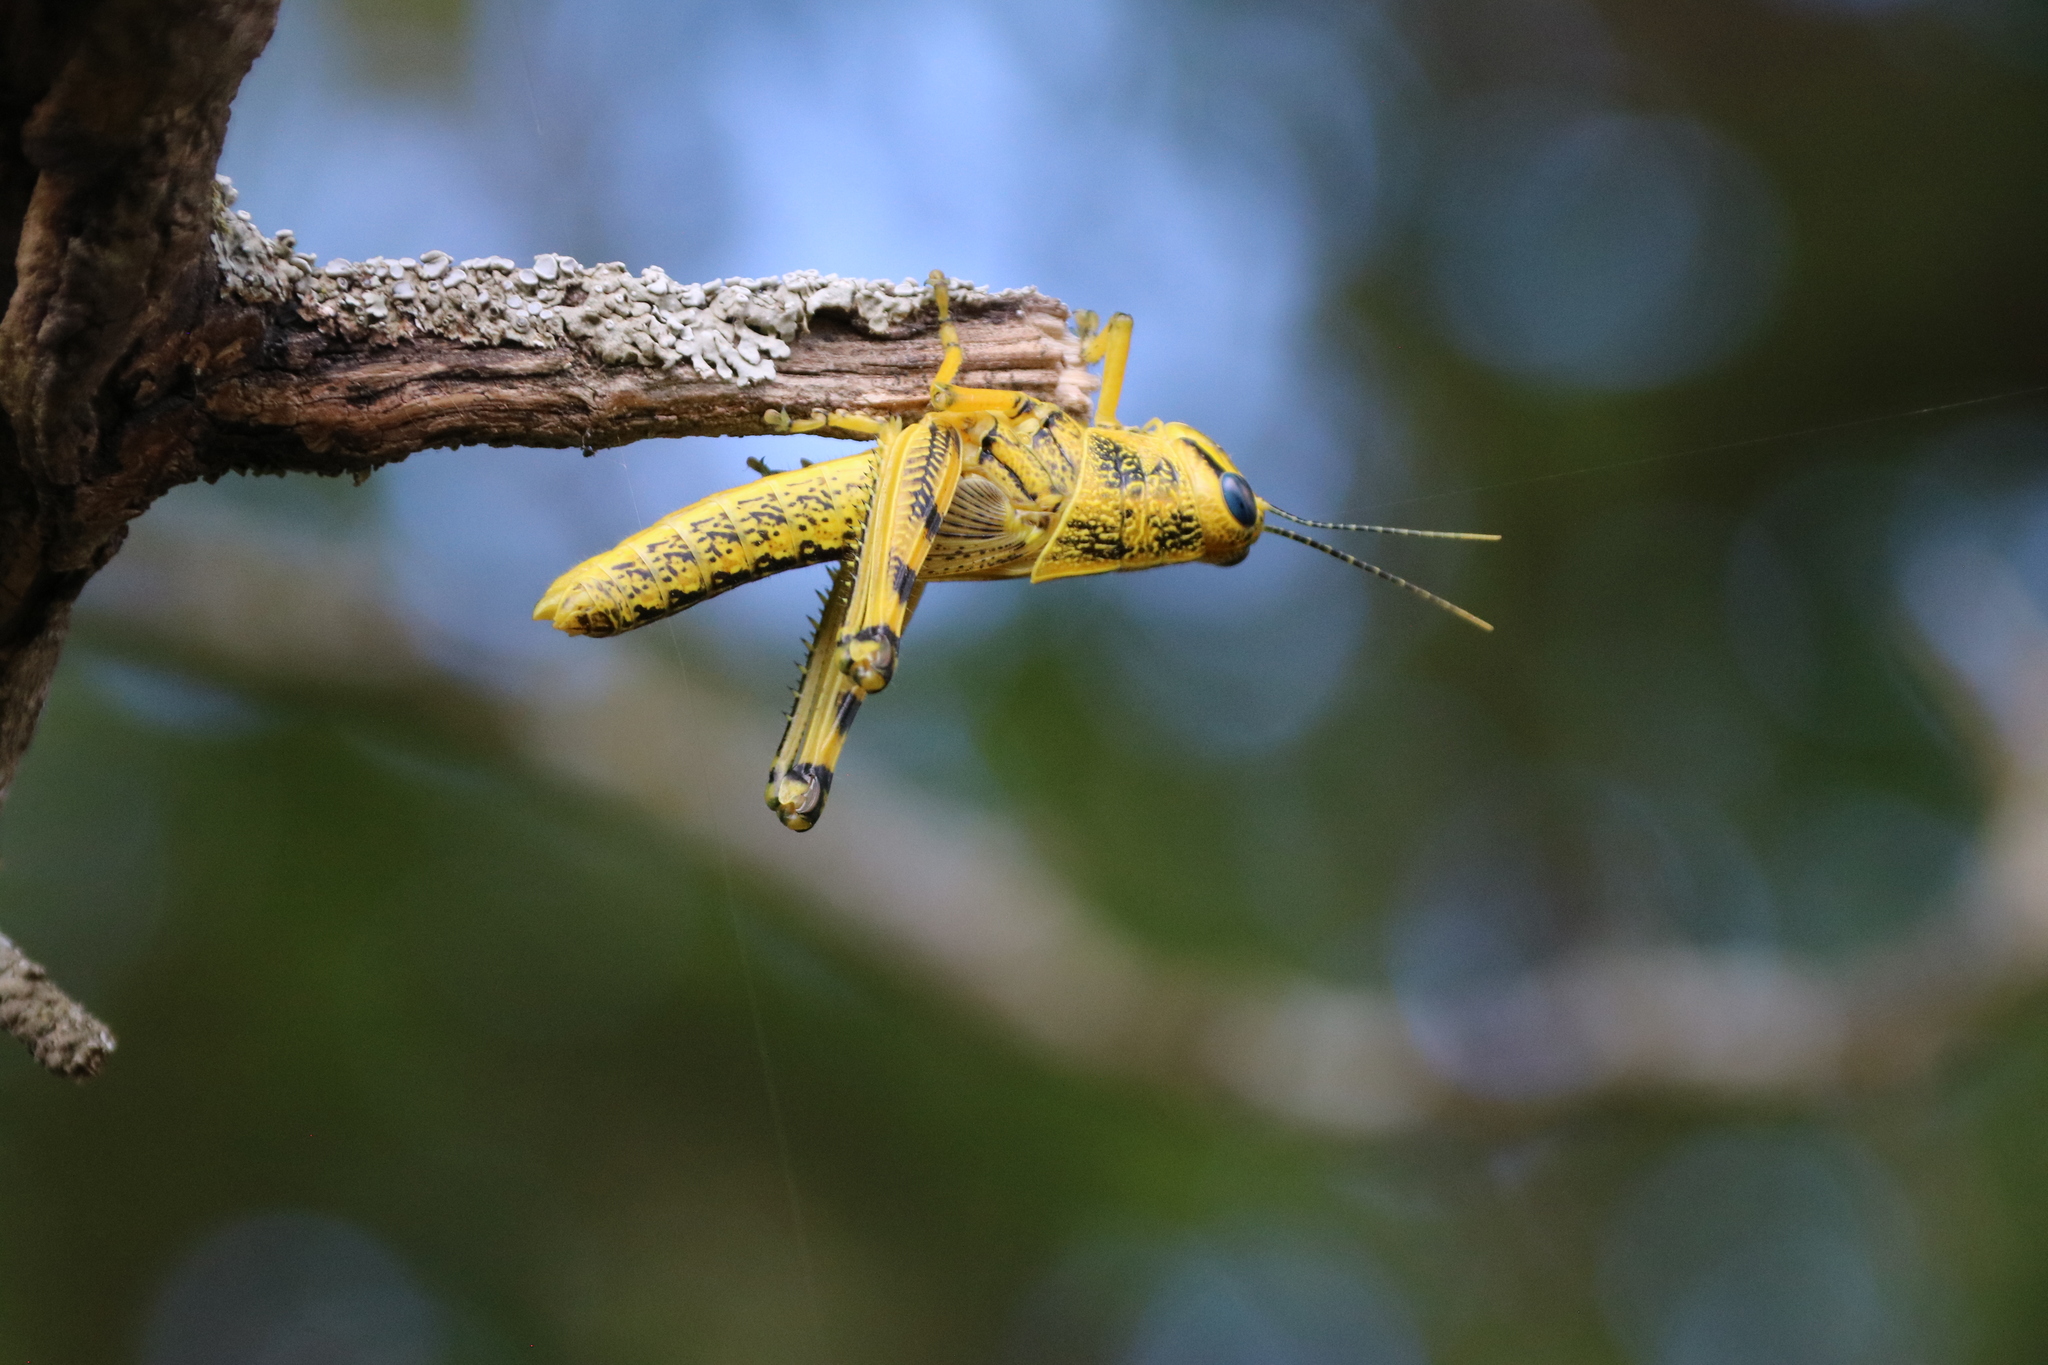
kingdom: Animalia
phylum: Arthropoda
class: Insecta
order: Orthoptera
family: Acrididae
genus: Schistocerca
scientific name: Schistocerca lineata
